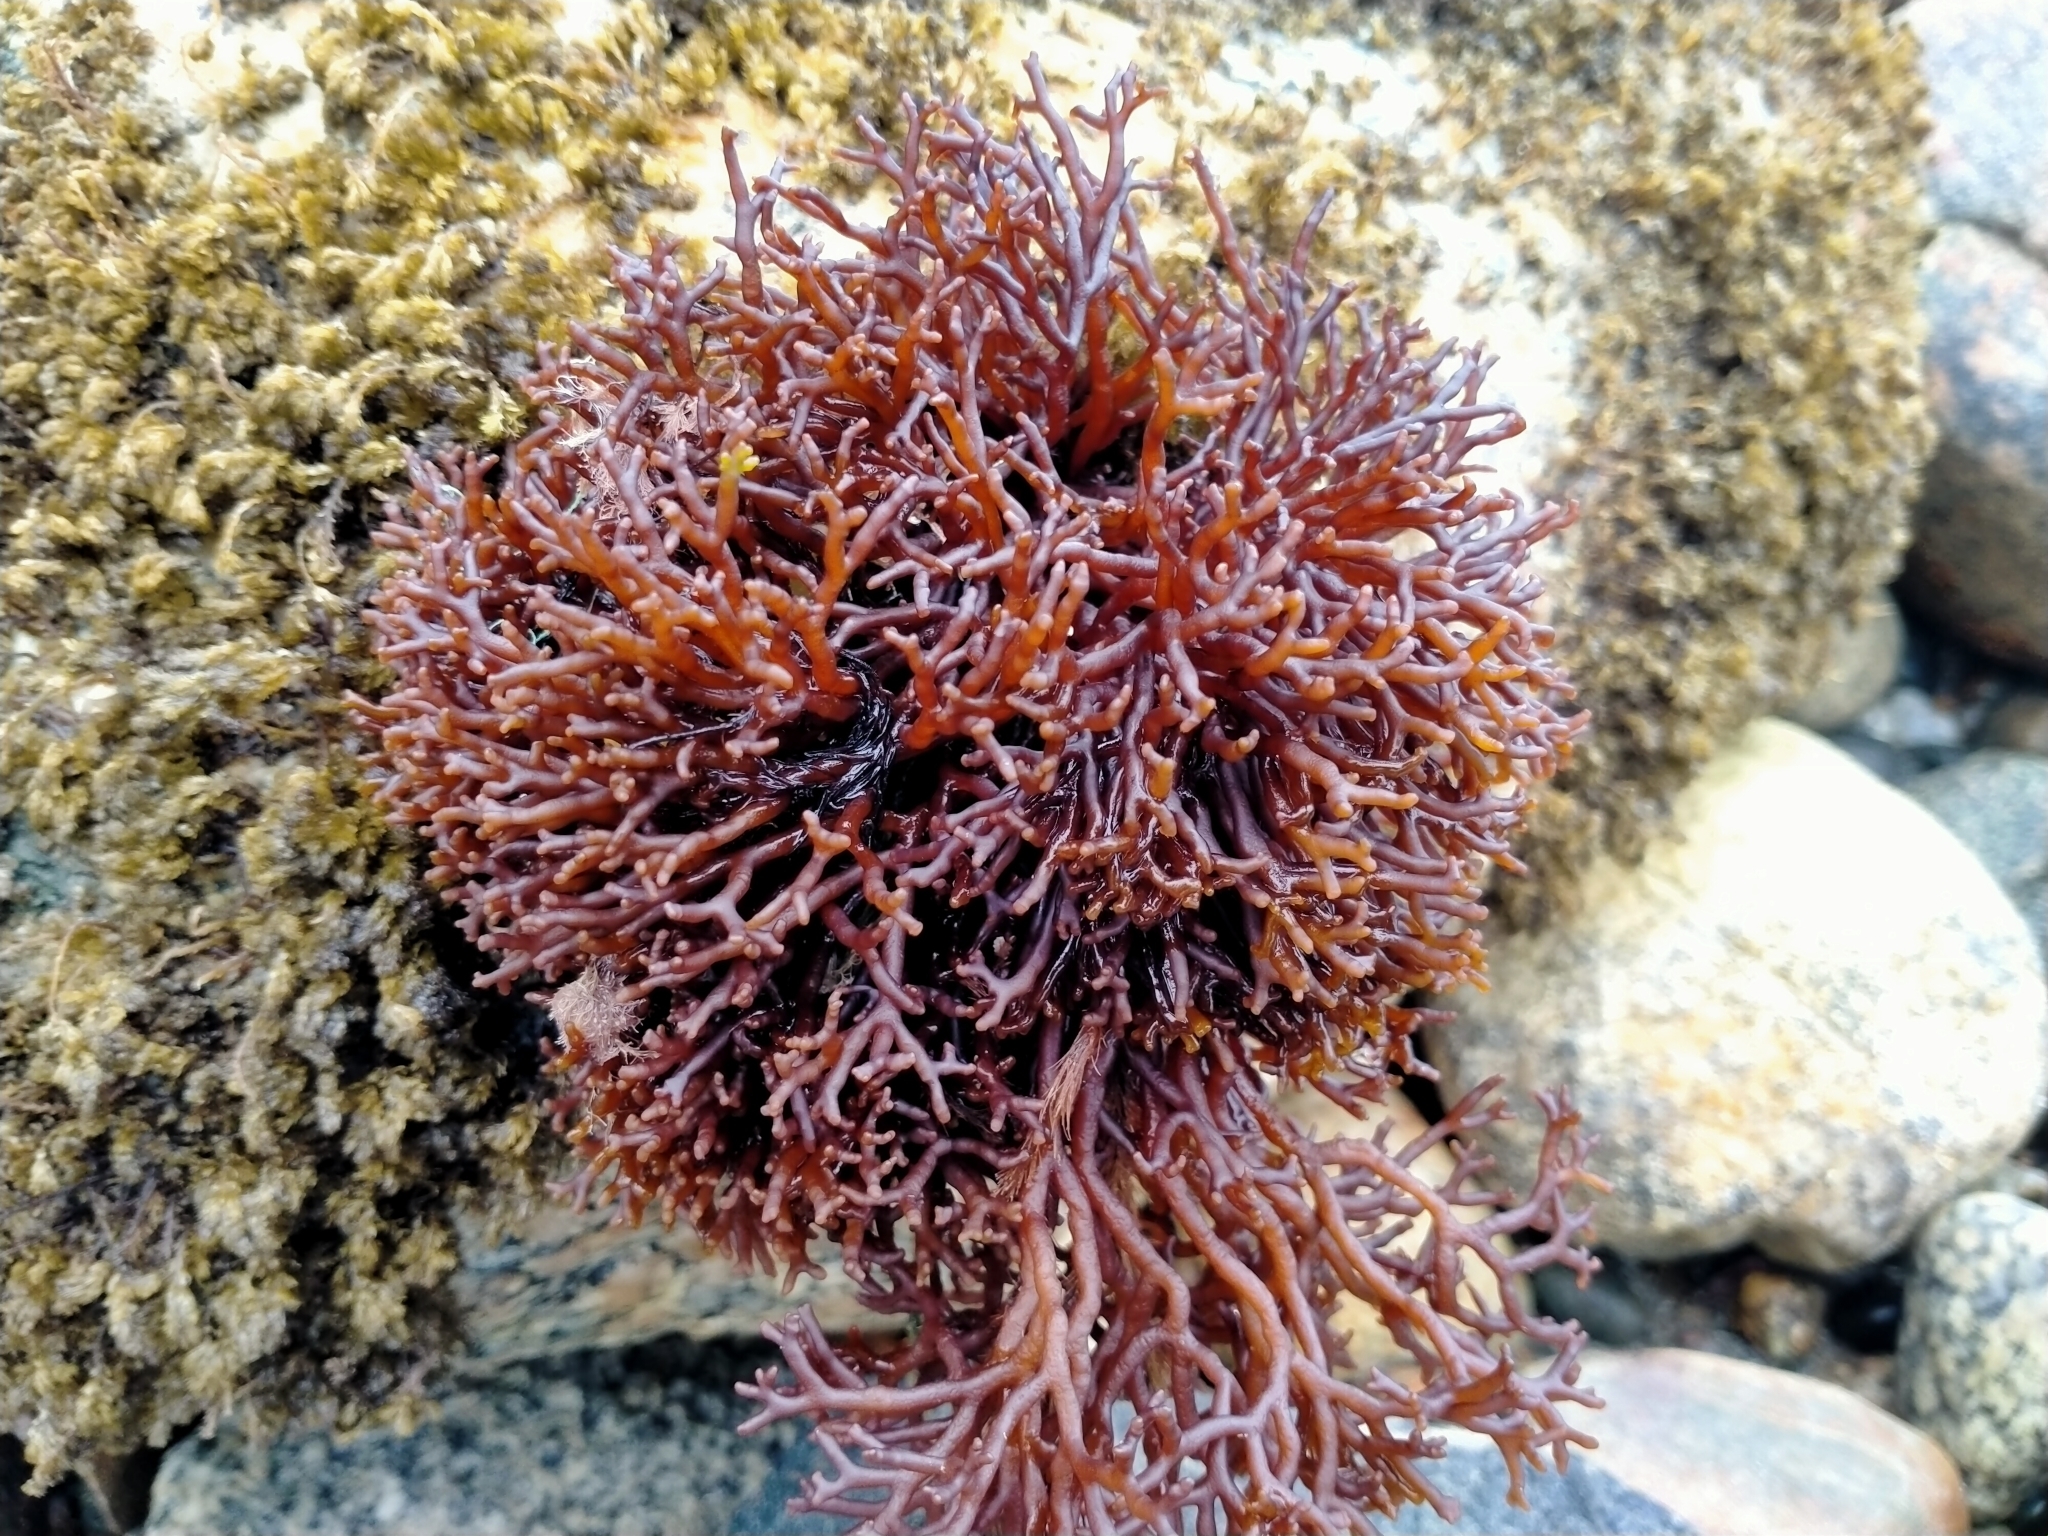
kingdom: Plantae
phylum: Rhodophyta
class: Florideophyceae
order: Hildenbrandiales
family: Hildenbrandiaceae
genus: Apophlaea
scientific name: Apophlaea lyallii
